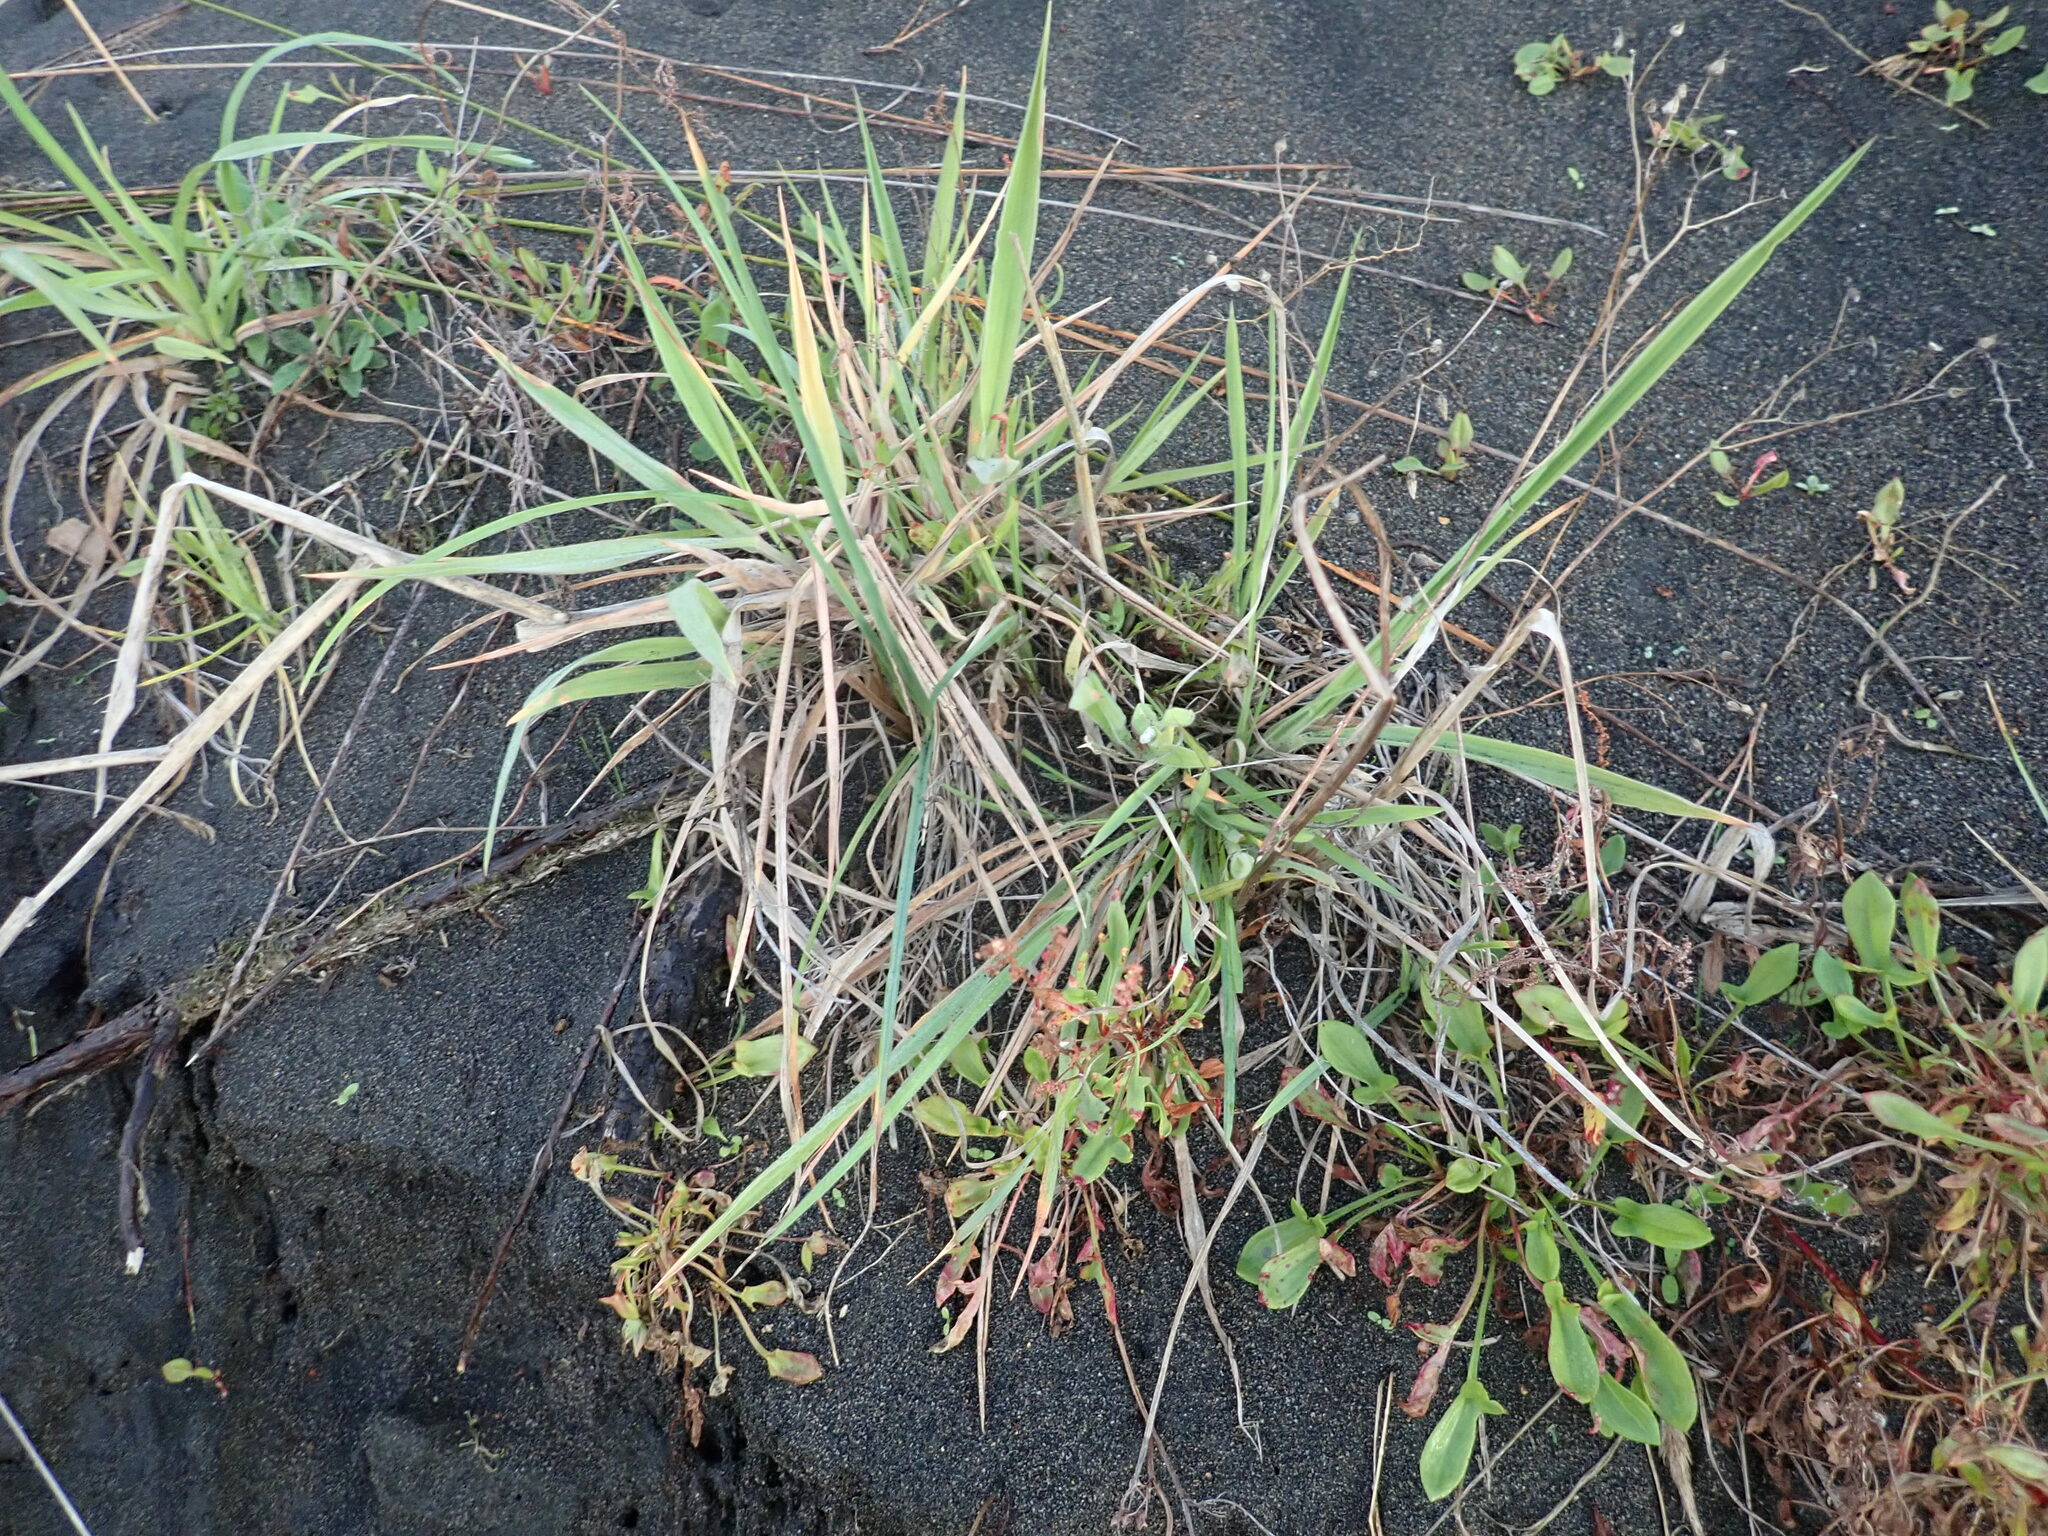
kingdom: Plantae
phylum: Tracheophyta
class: Liliopsida
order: Poales
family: Poaceae
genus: Lachnagrostis
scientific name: Lachnagrostis billardierei
